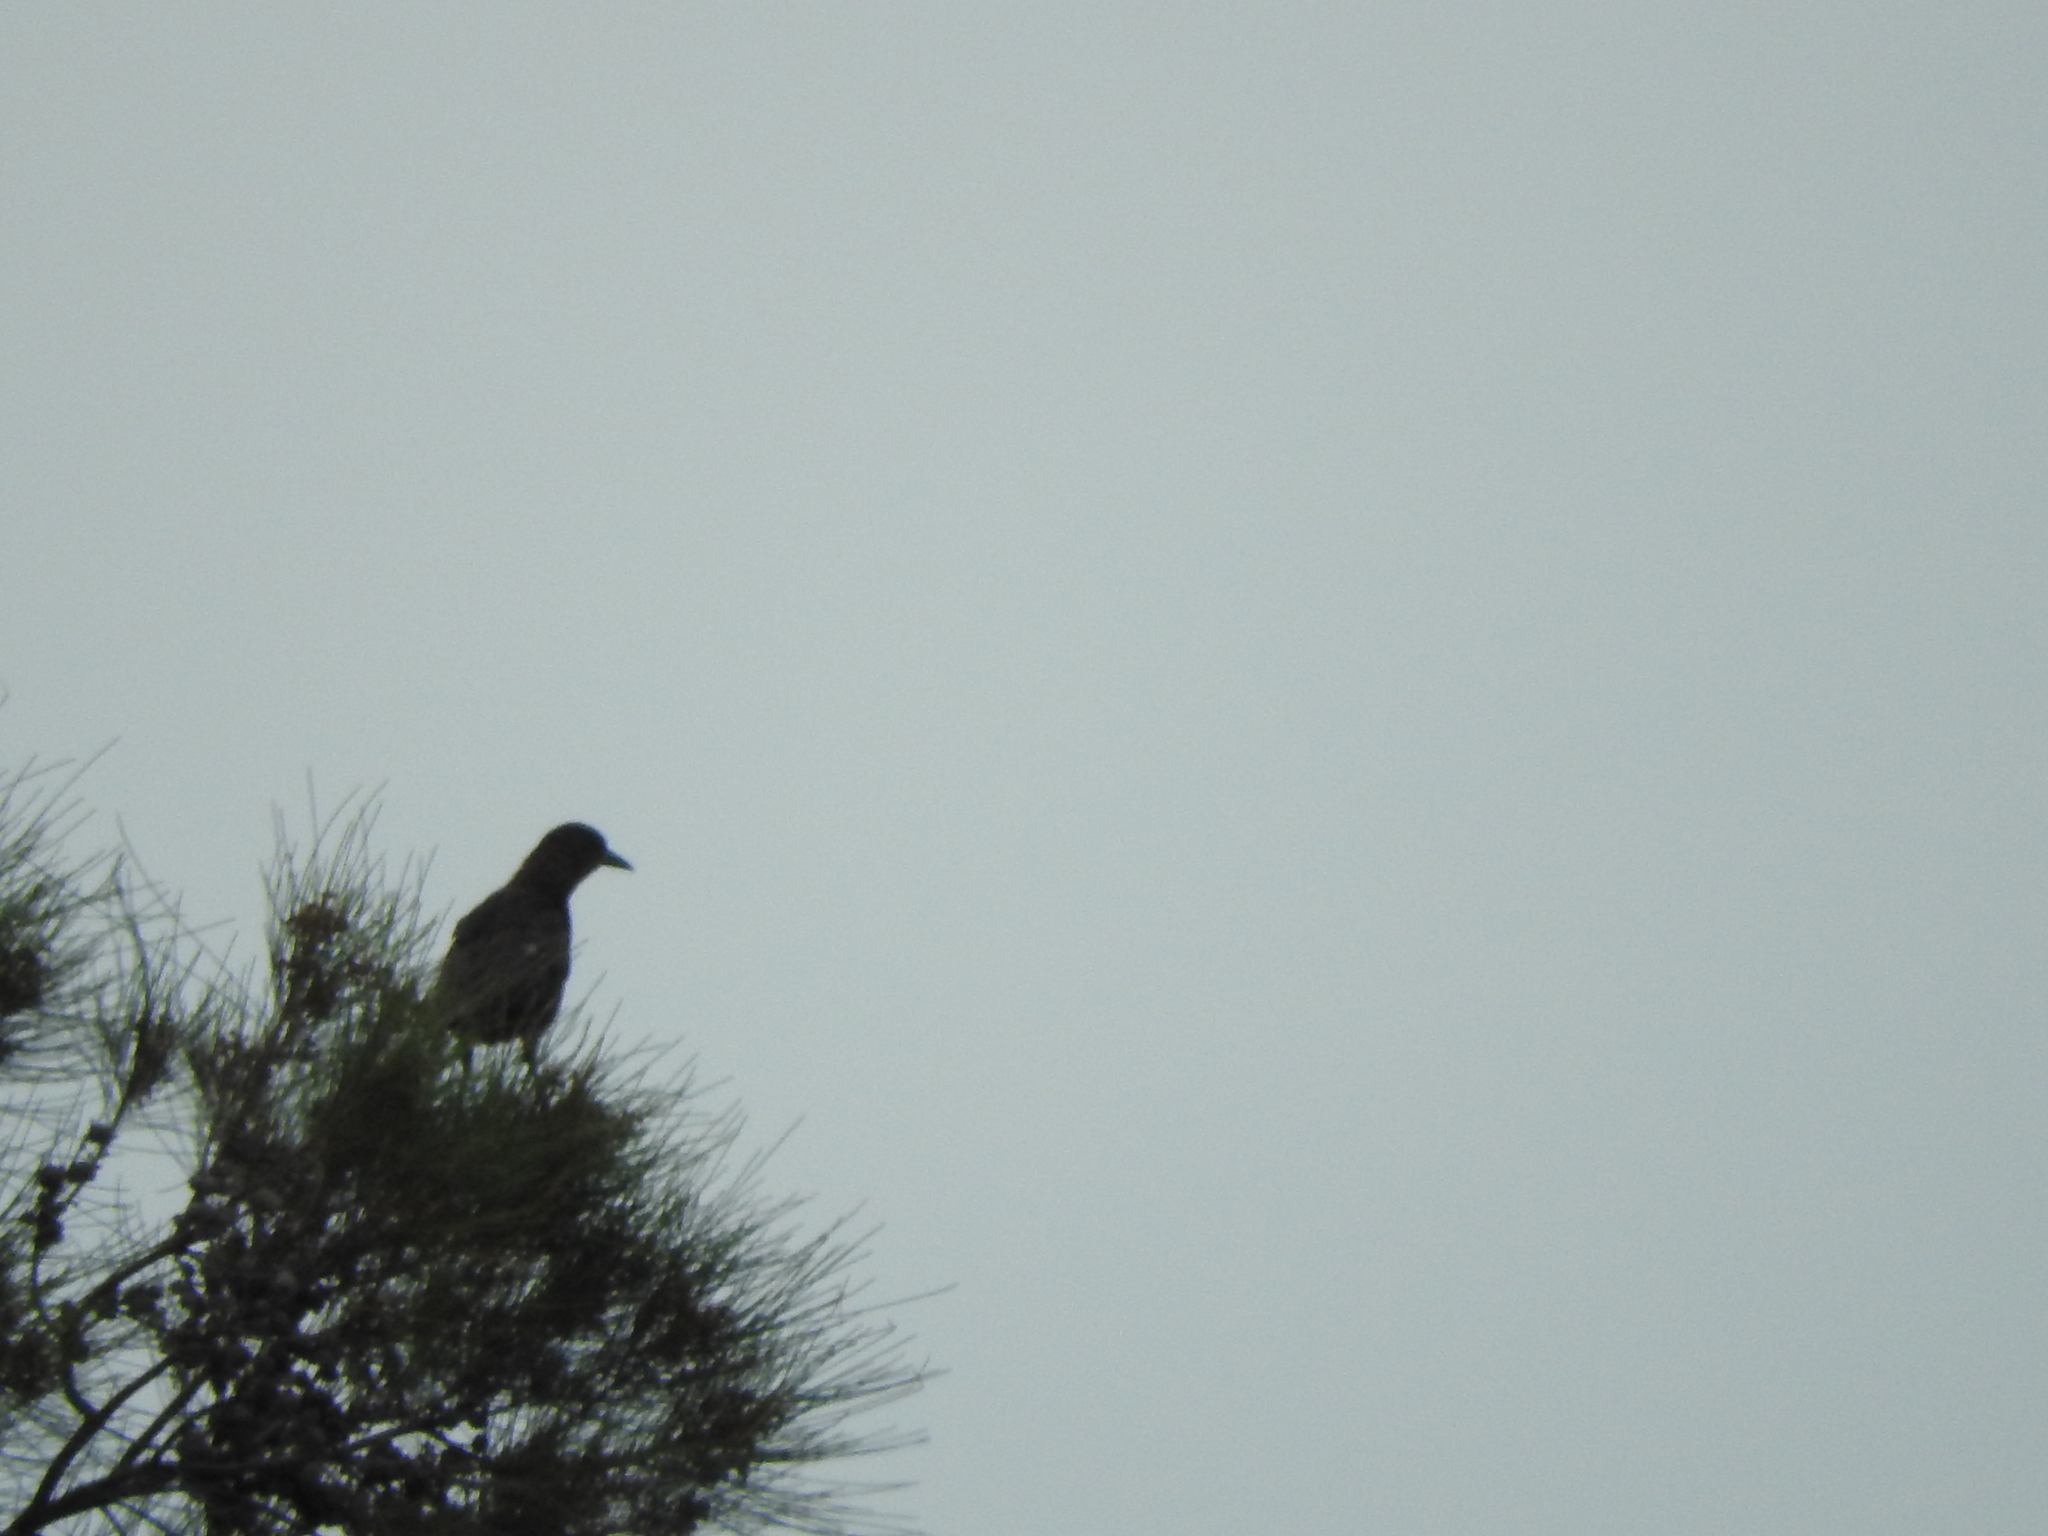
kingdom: Animalia
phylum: Chordata
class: Aves
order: Passeriformes
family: Icteridae
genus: Quiscalus
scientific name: Quiscalus mexicanus
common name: Great-tailed grackle
